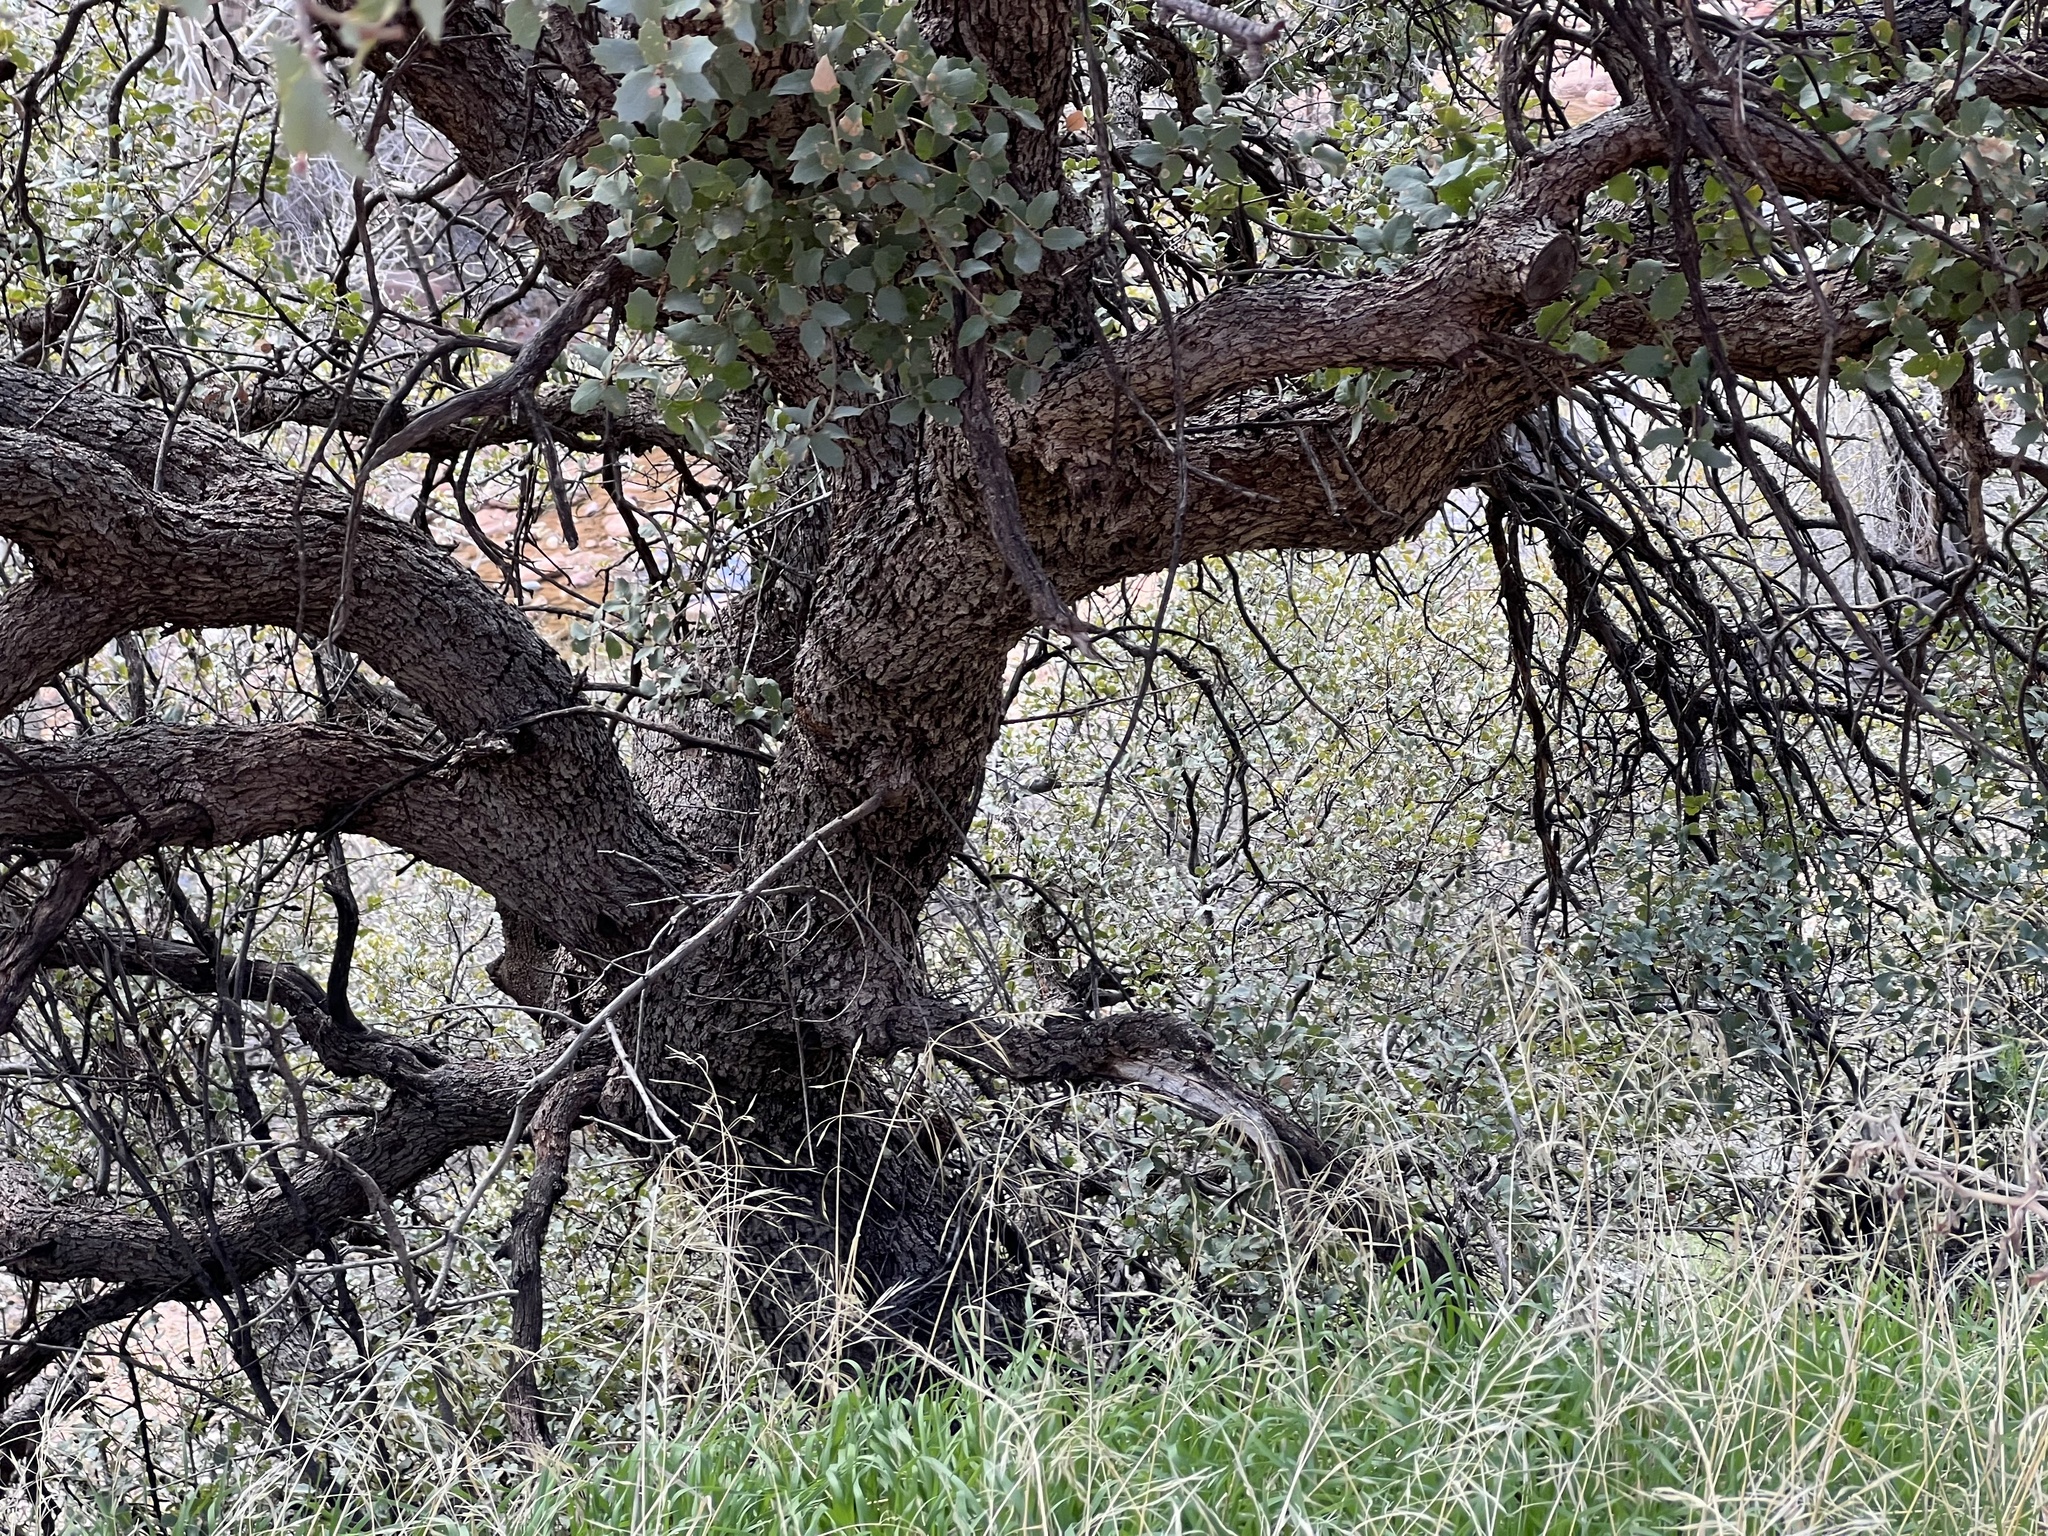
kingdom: Plantae
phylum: Tracheophyta
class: Magnoliopsida
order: Fagales
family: Fagaceae
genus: Quercus
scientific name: Quercus turbinella
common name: Sonoran scrub oak
